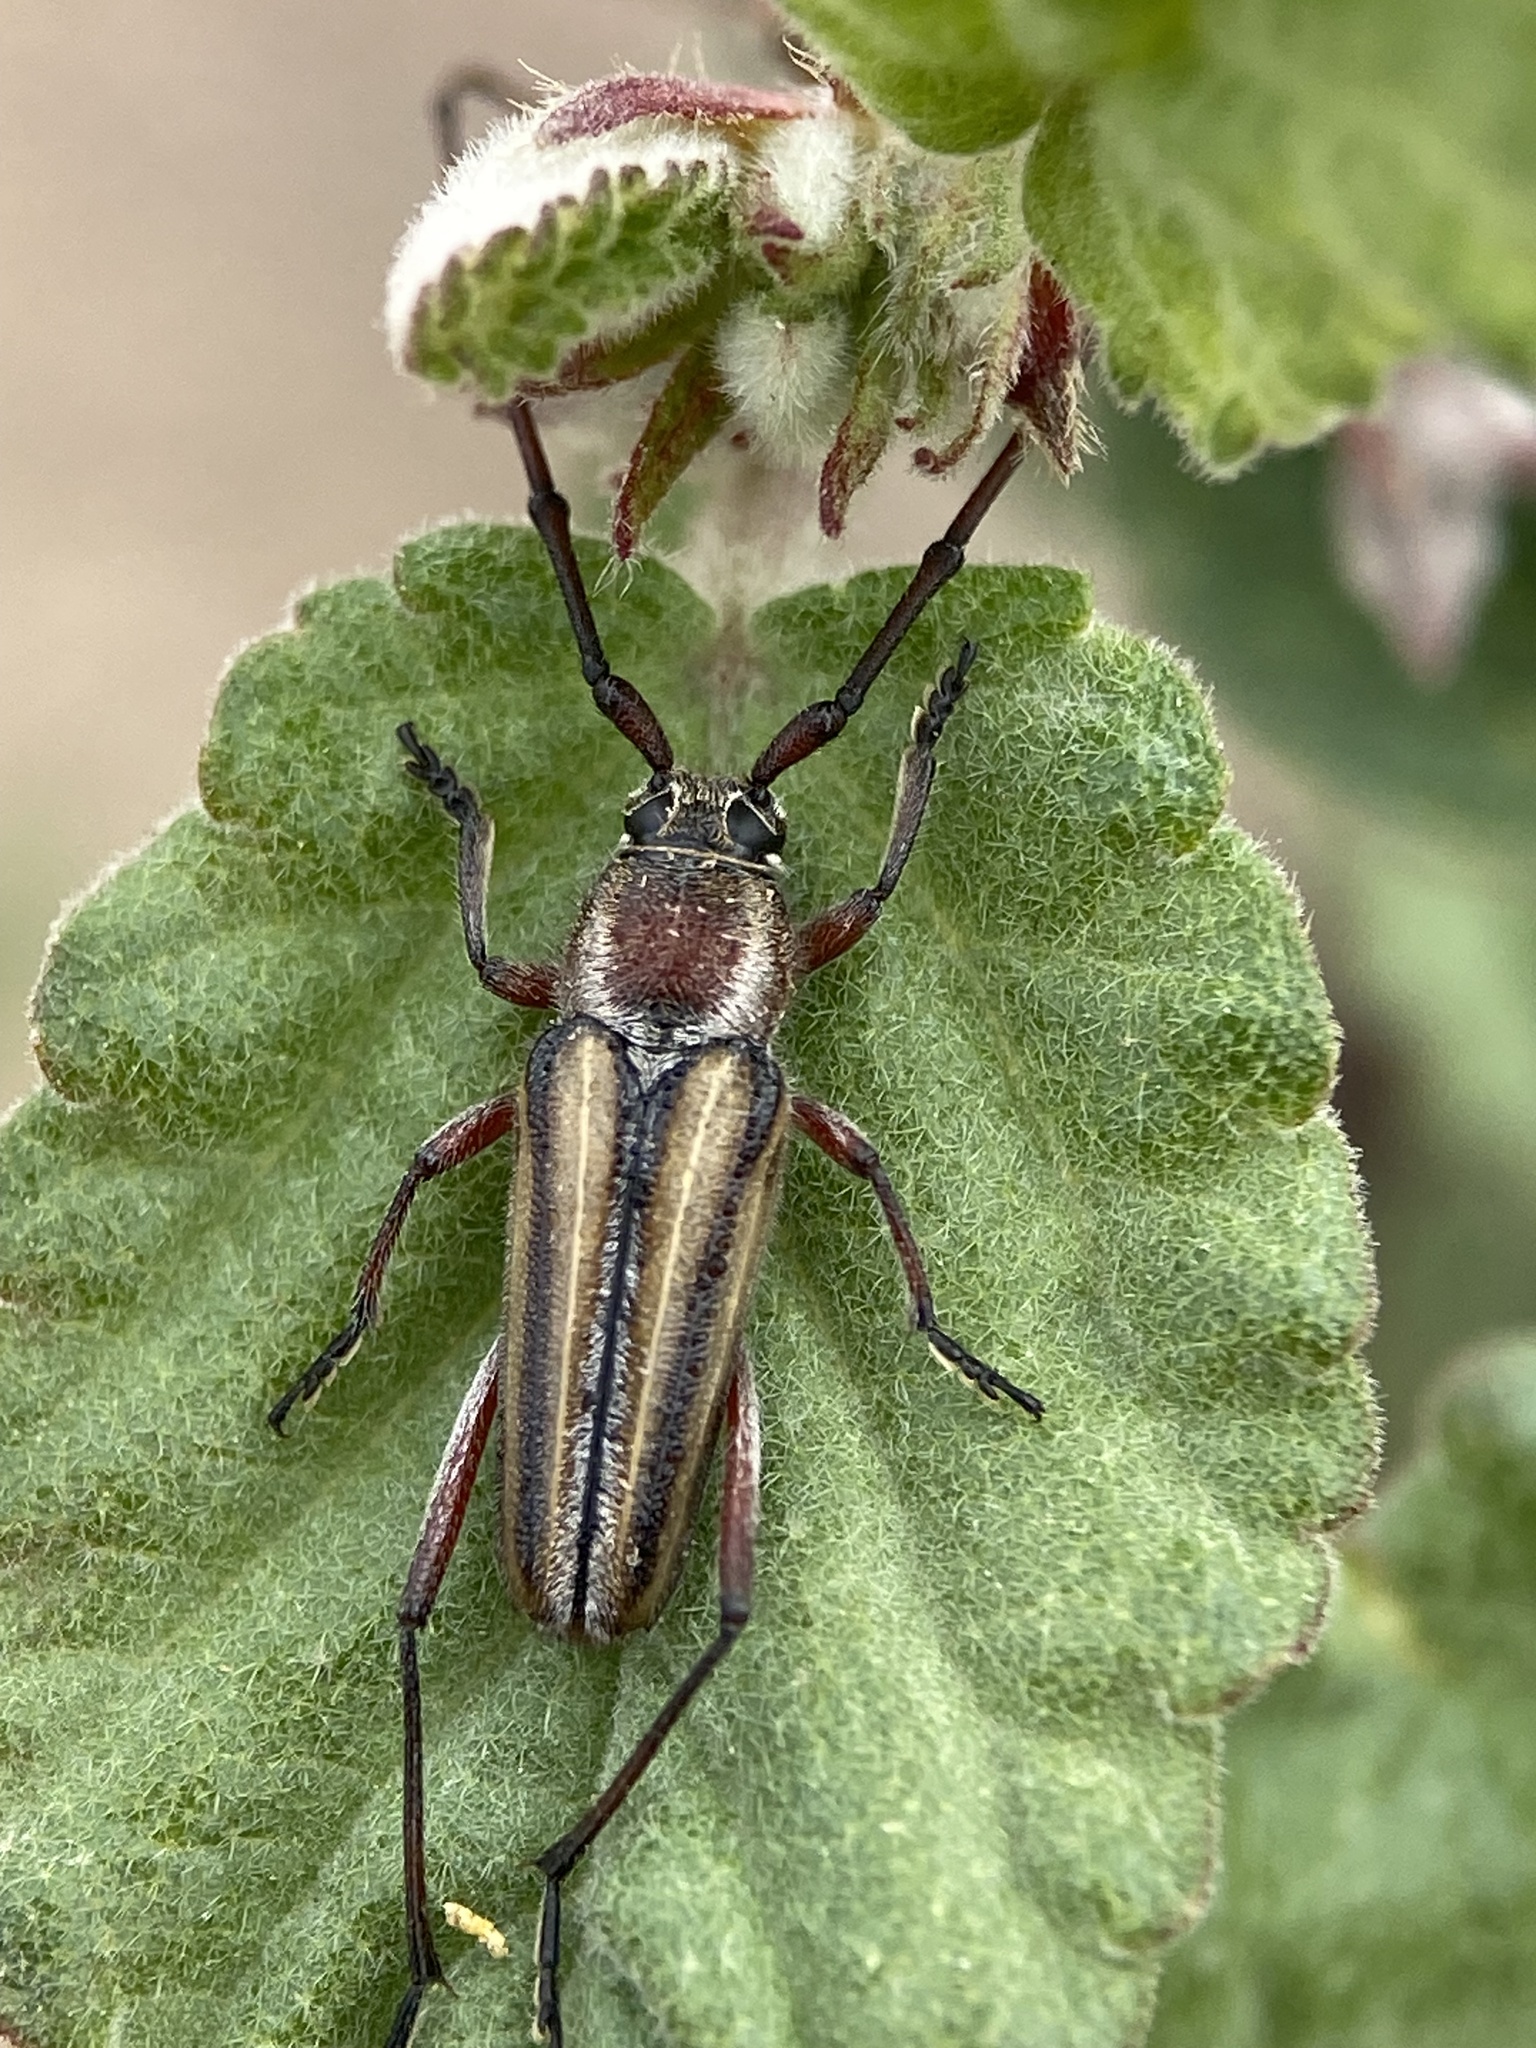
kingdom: Animalia
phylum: Arthropoda
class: Insecta
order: Coleoptera
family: Cerambycidae
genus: Sphaenothecus
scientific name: Sphaenothecus bilineatus
